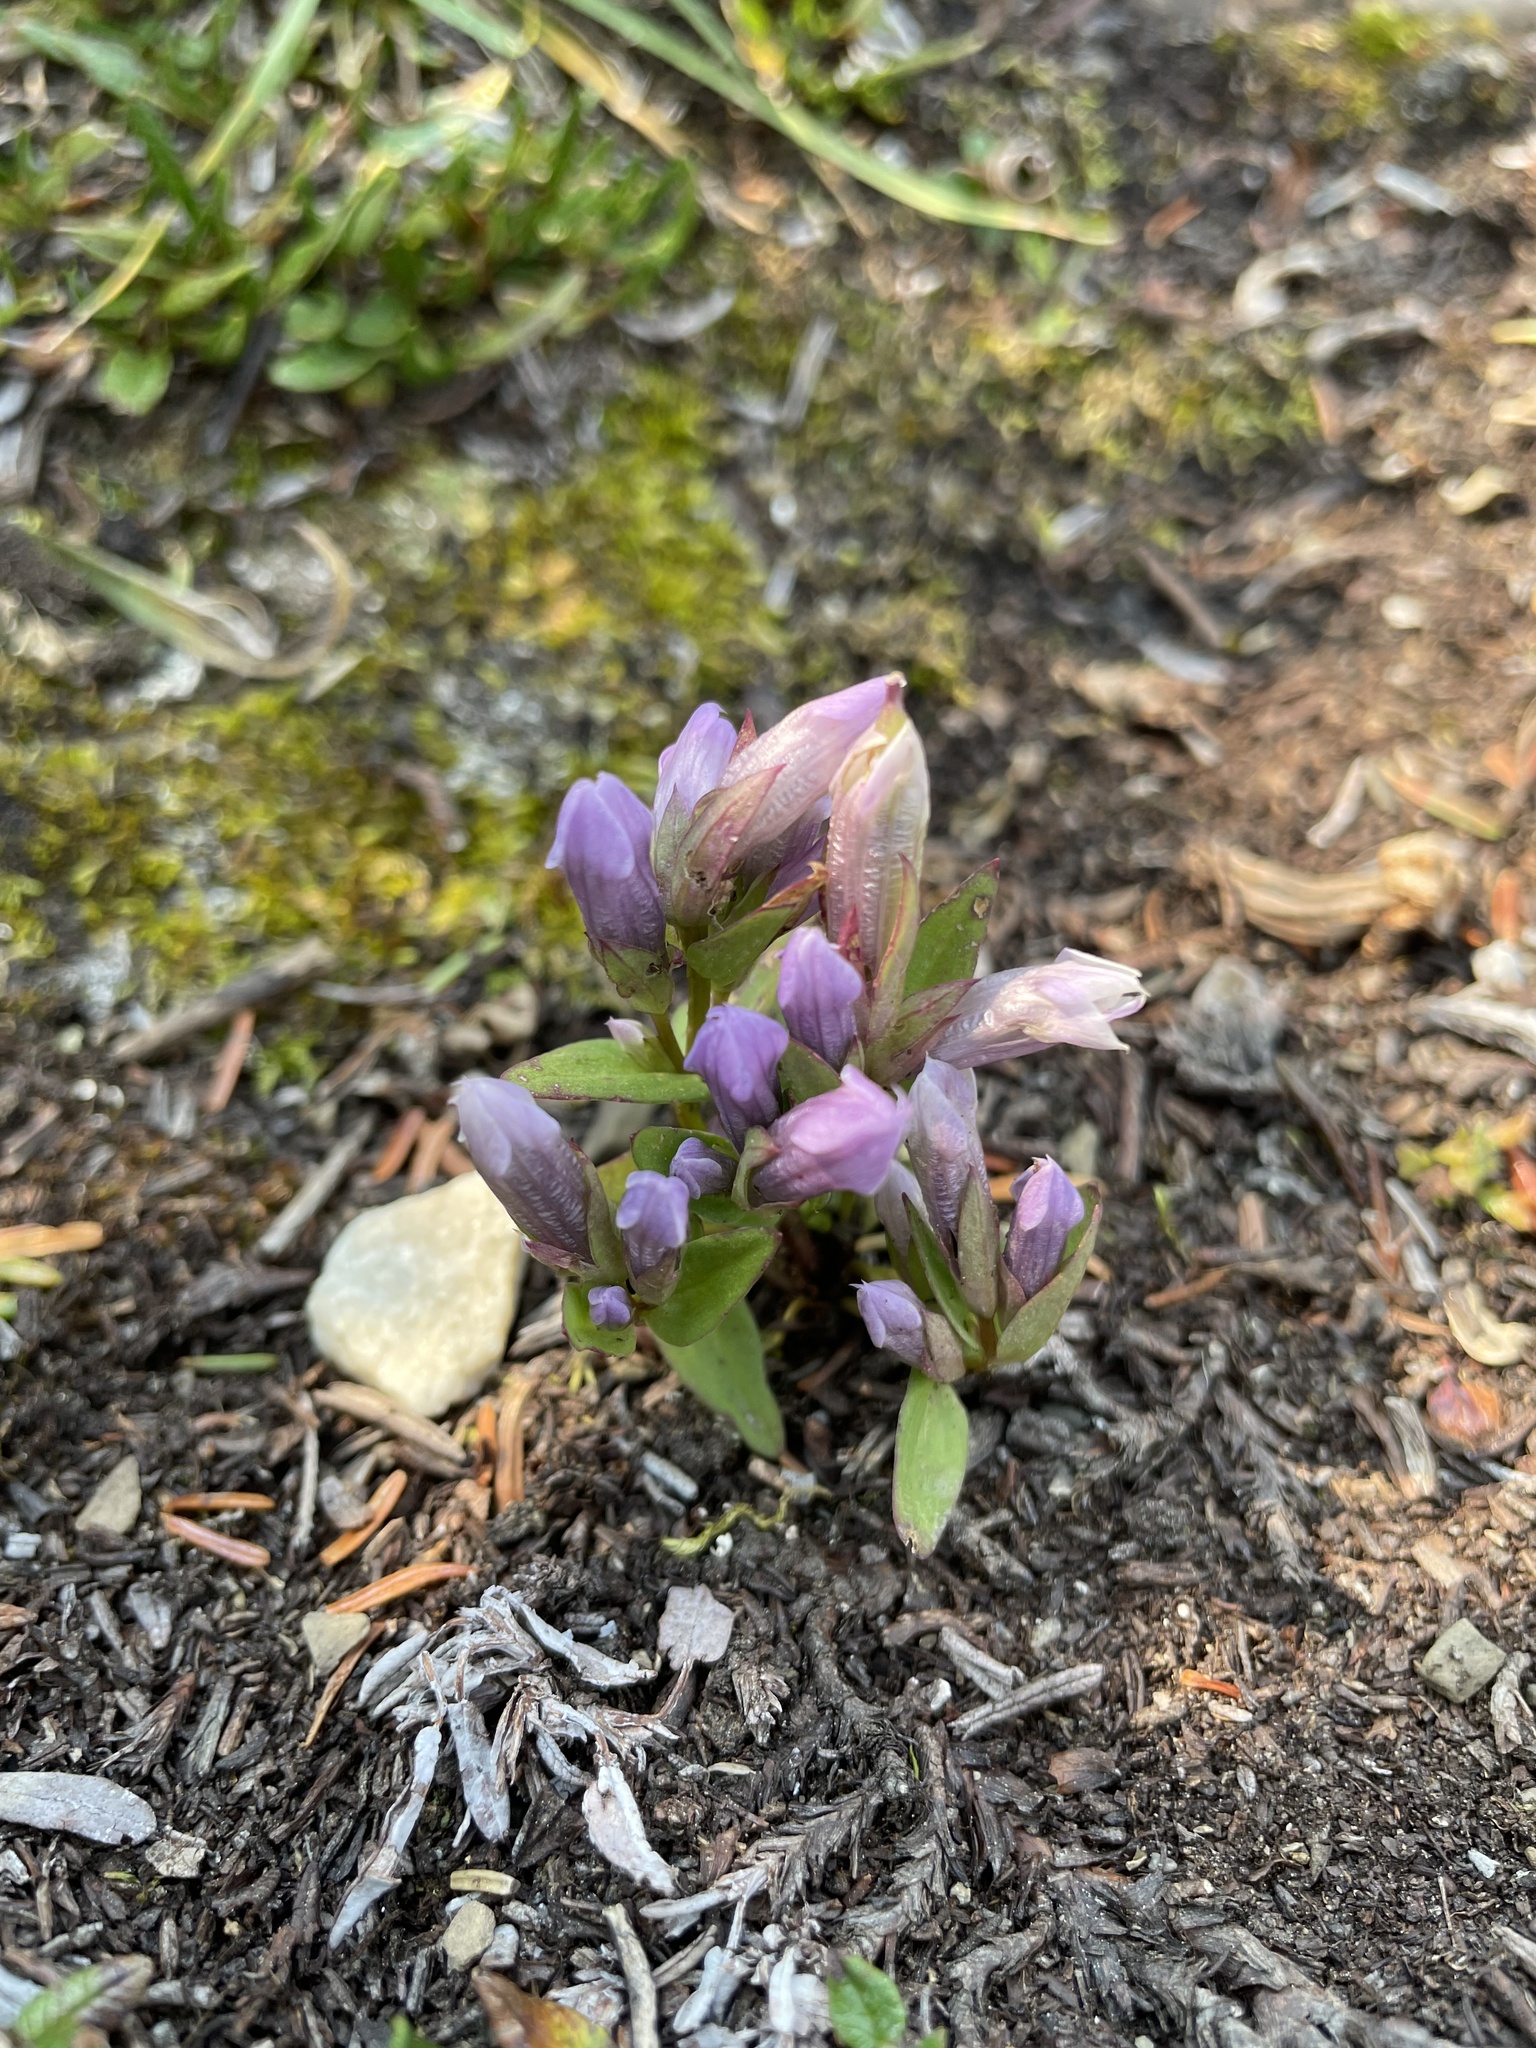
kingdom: Plantae
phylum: Tracheophyta
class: Magnoliopsida
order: Gentianales
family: Gentianaceae
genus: Gentianella
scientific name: Gentianella propinqua
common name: Four-parted dwarf-gentian
